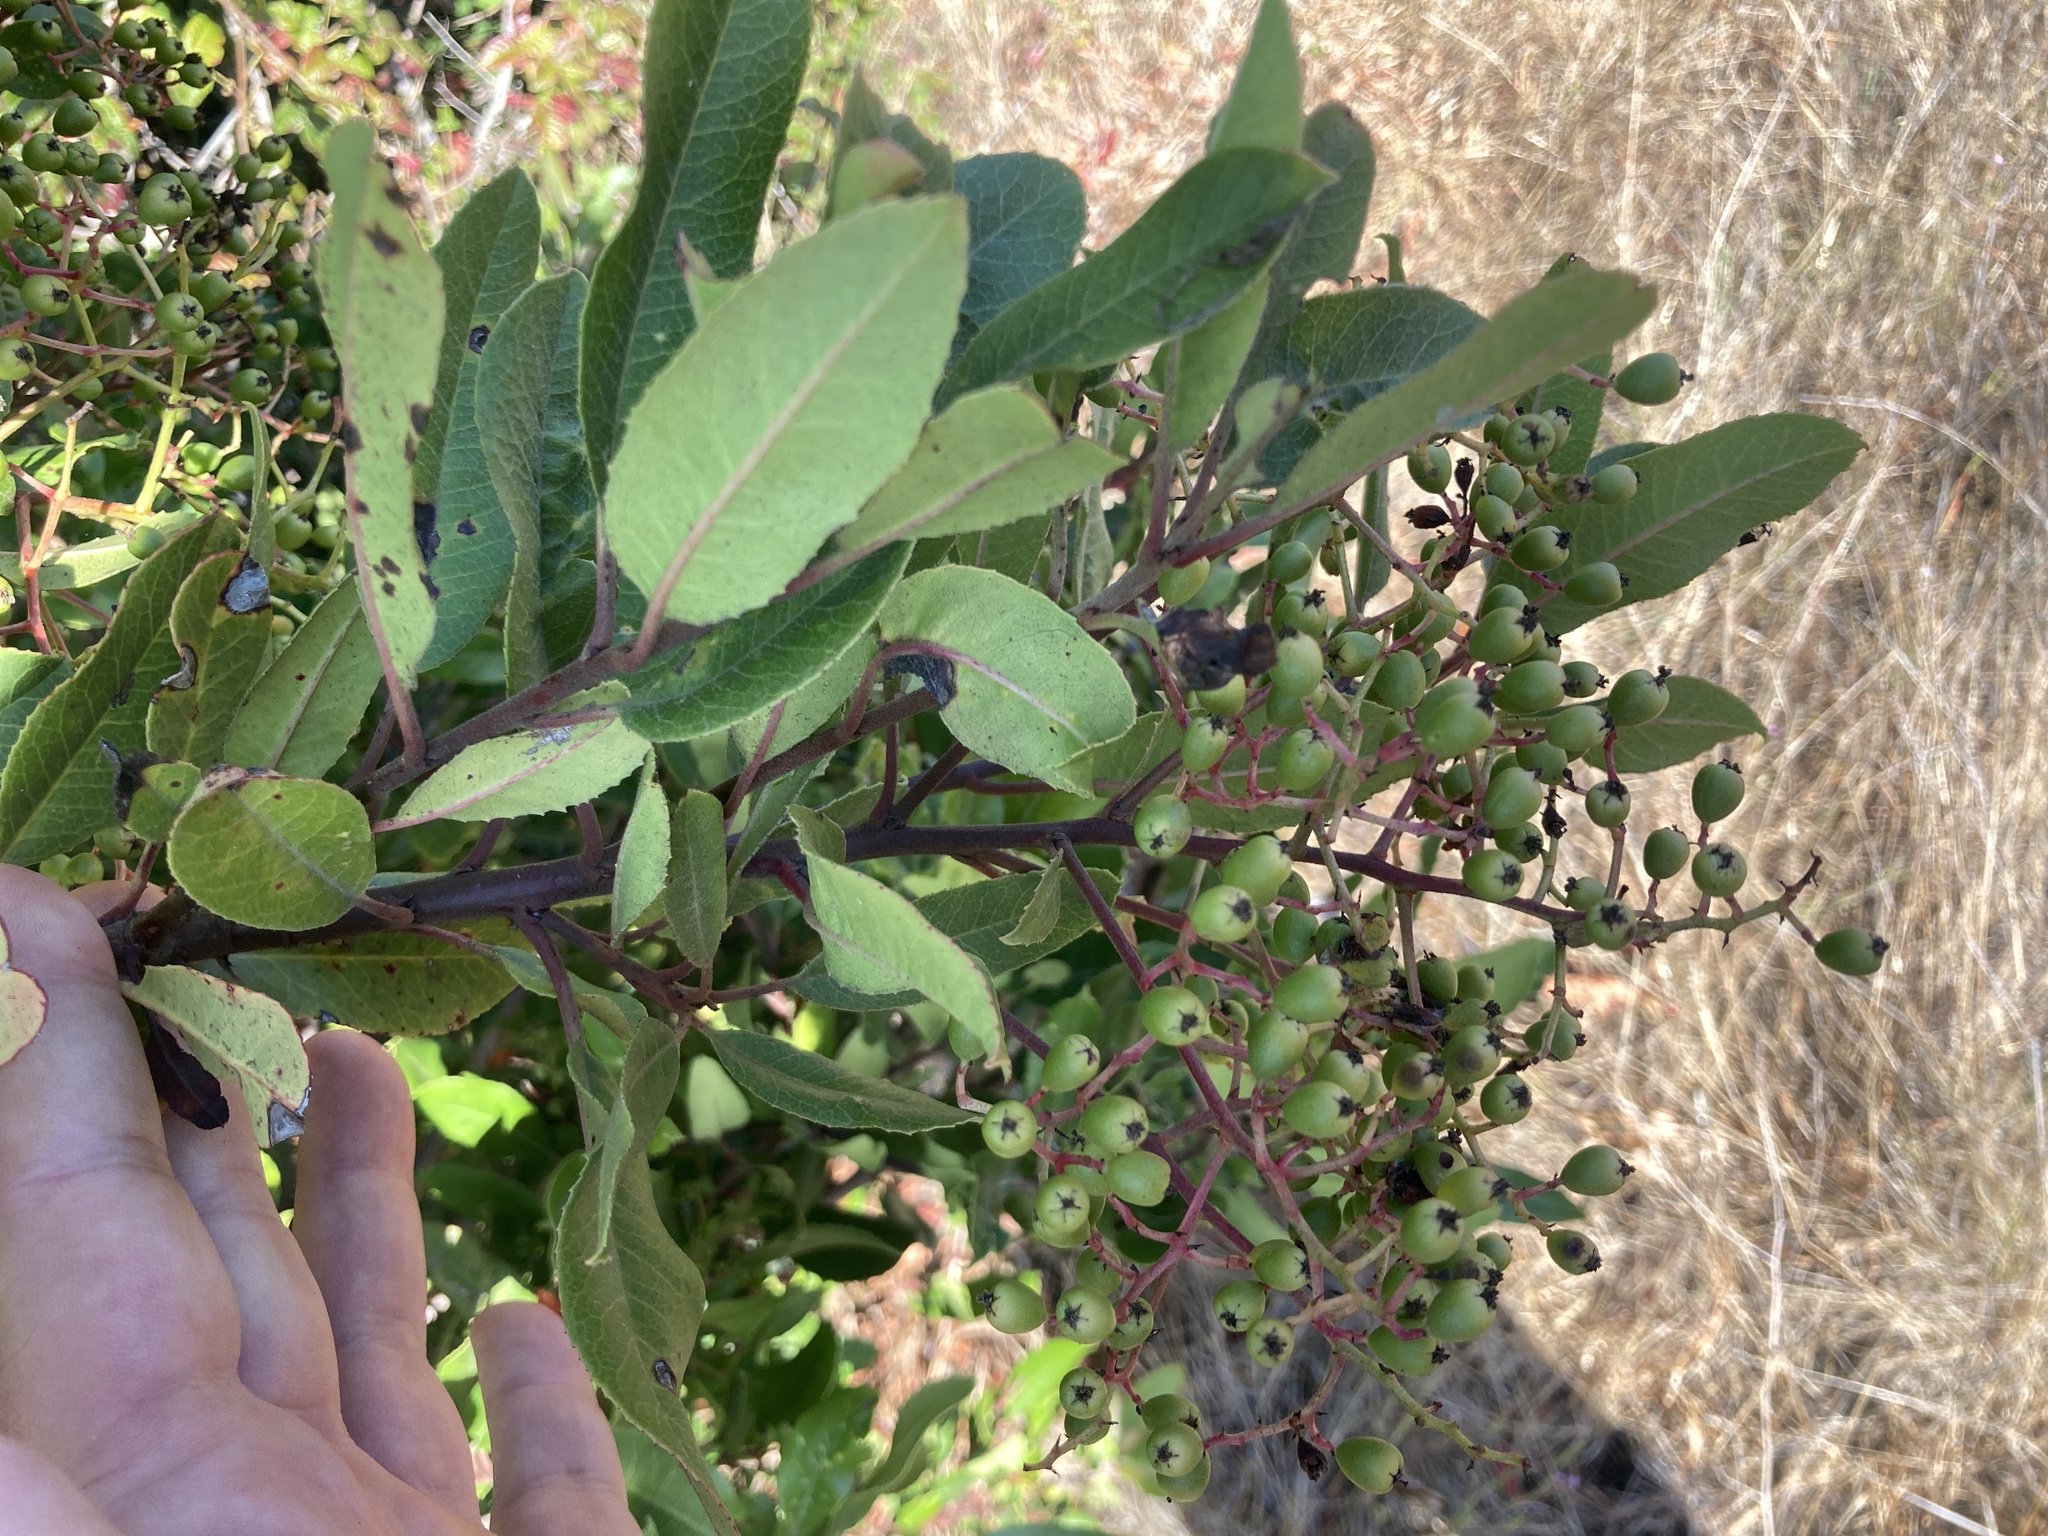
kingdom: Plantae
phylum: Tracheophyta
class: Magnoliopsida
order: Rosales
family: Rosaceae
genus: Heteromeles
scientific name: Heteromeles arbutifolia
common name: California-holly
